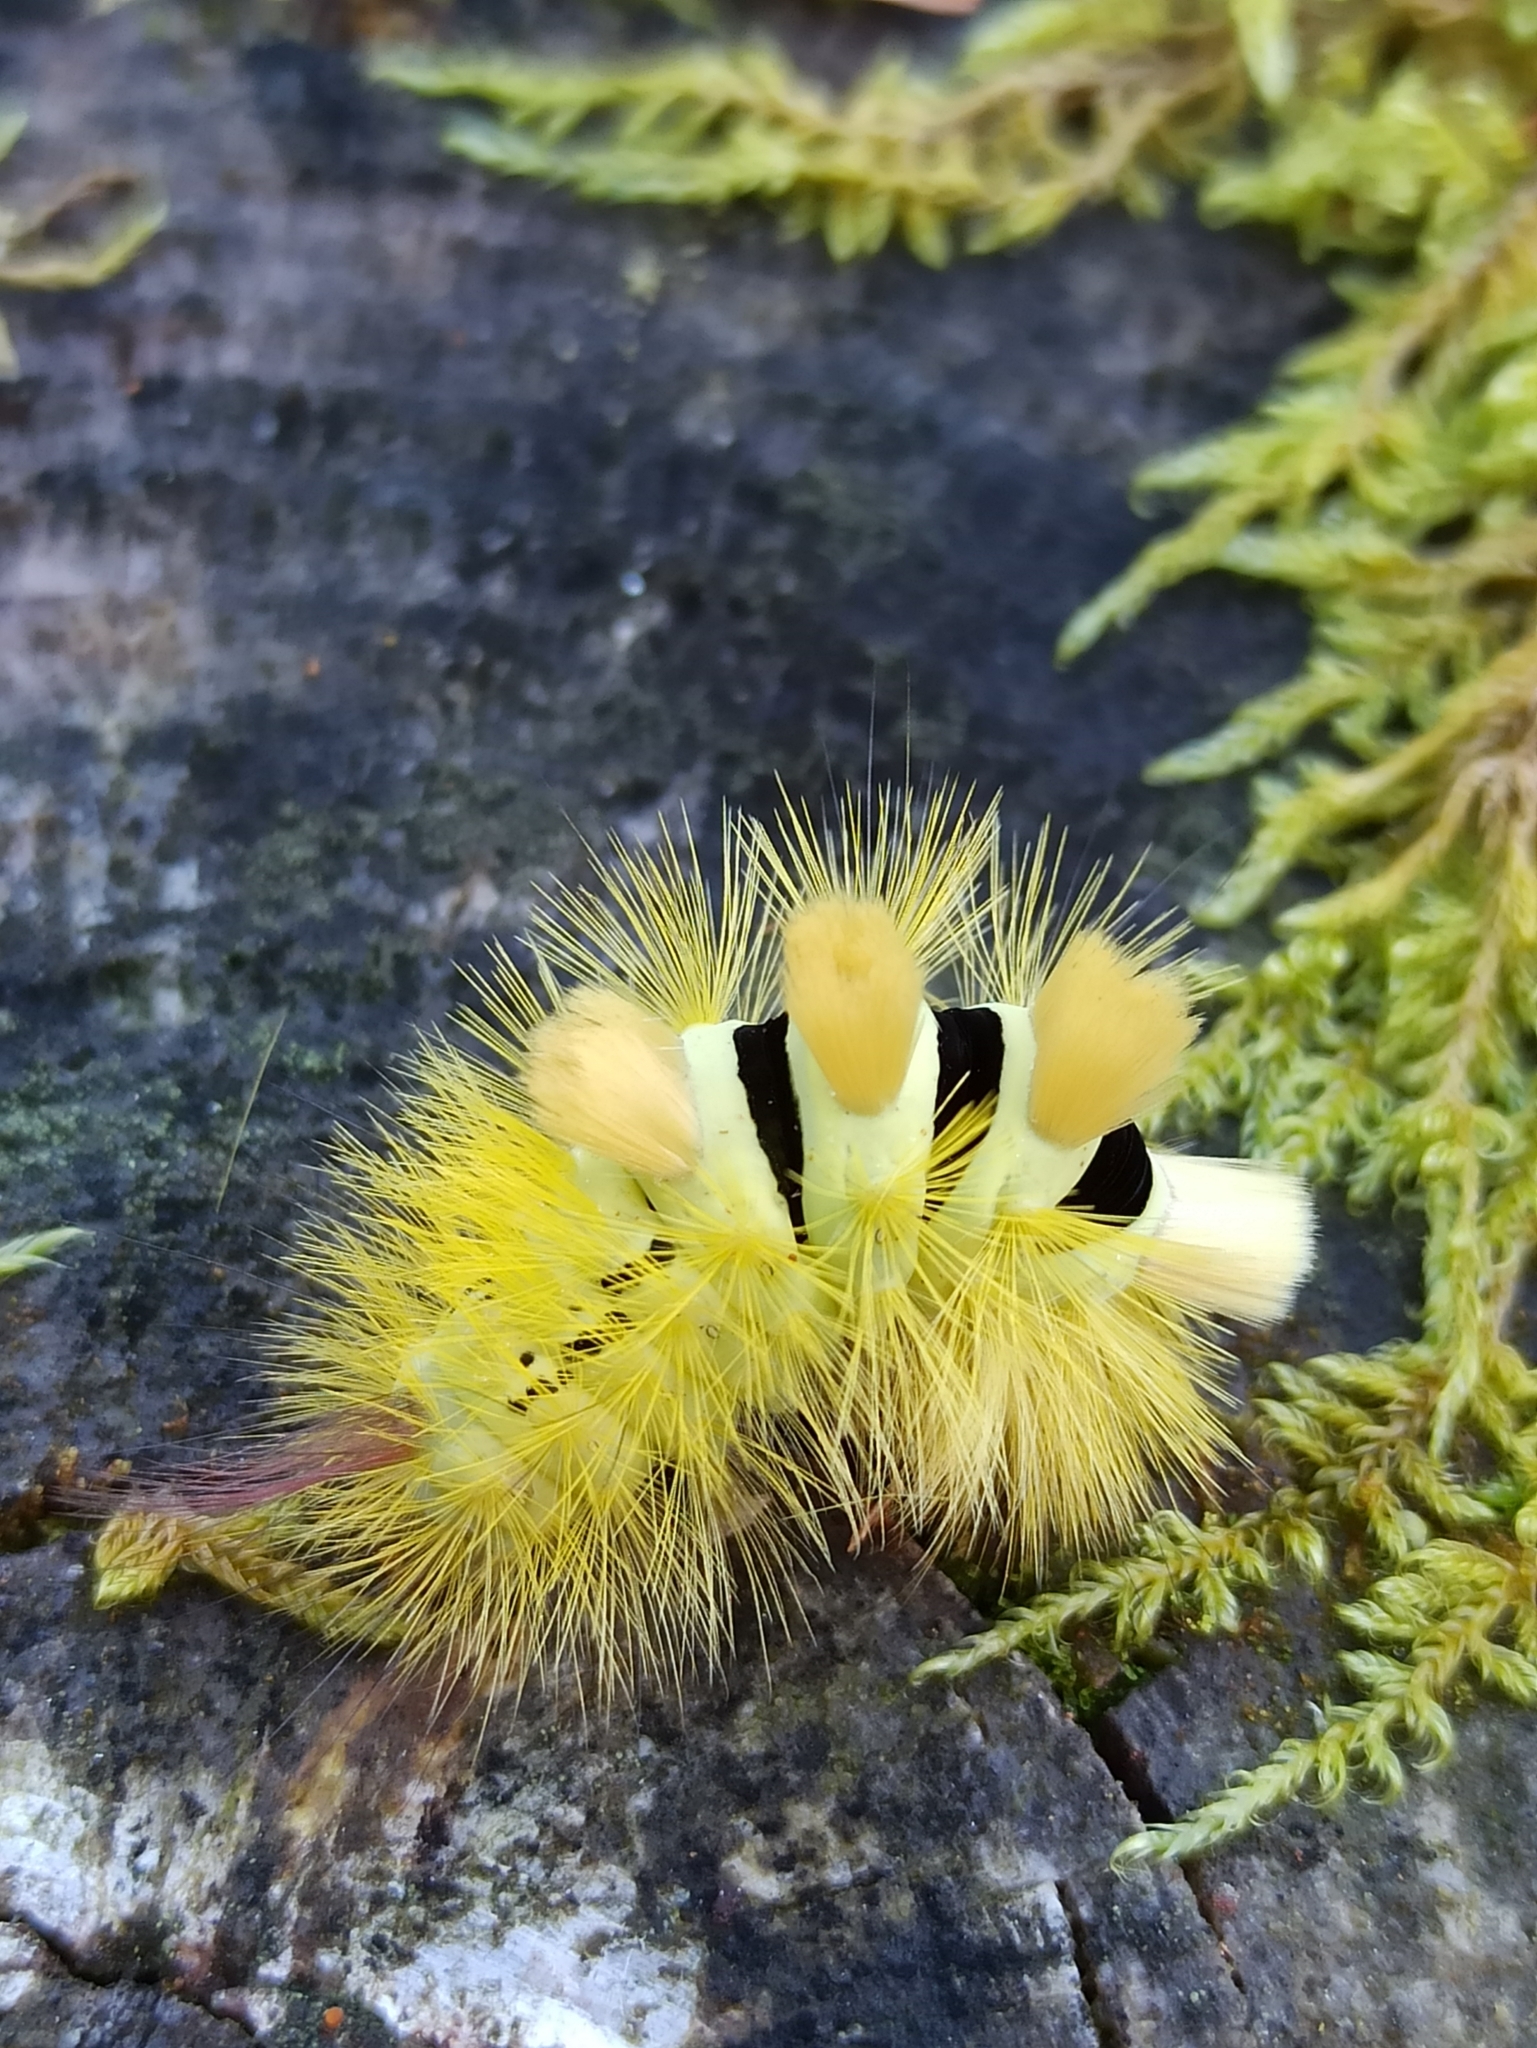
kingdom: Animalia
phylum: Arthropoda
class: Insecta
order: Lepidoptera
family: Erebidae
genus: Calliteara
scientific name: Calliteara pudibunda
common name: Pale tussock
